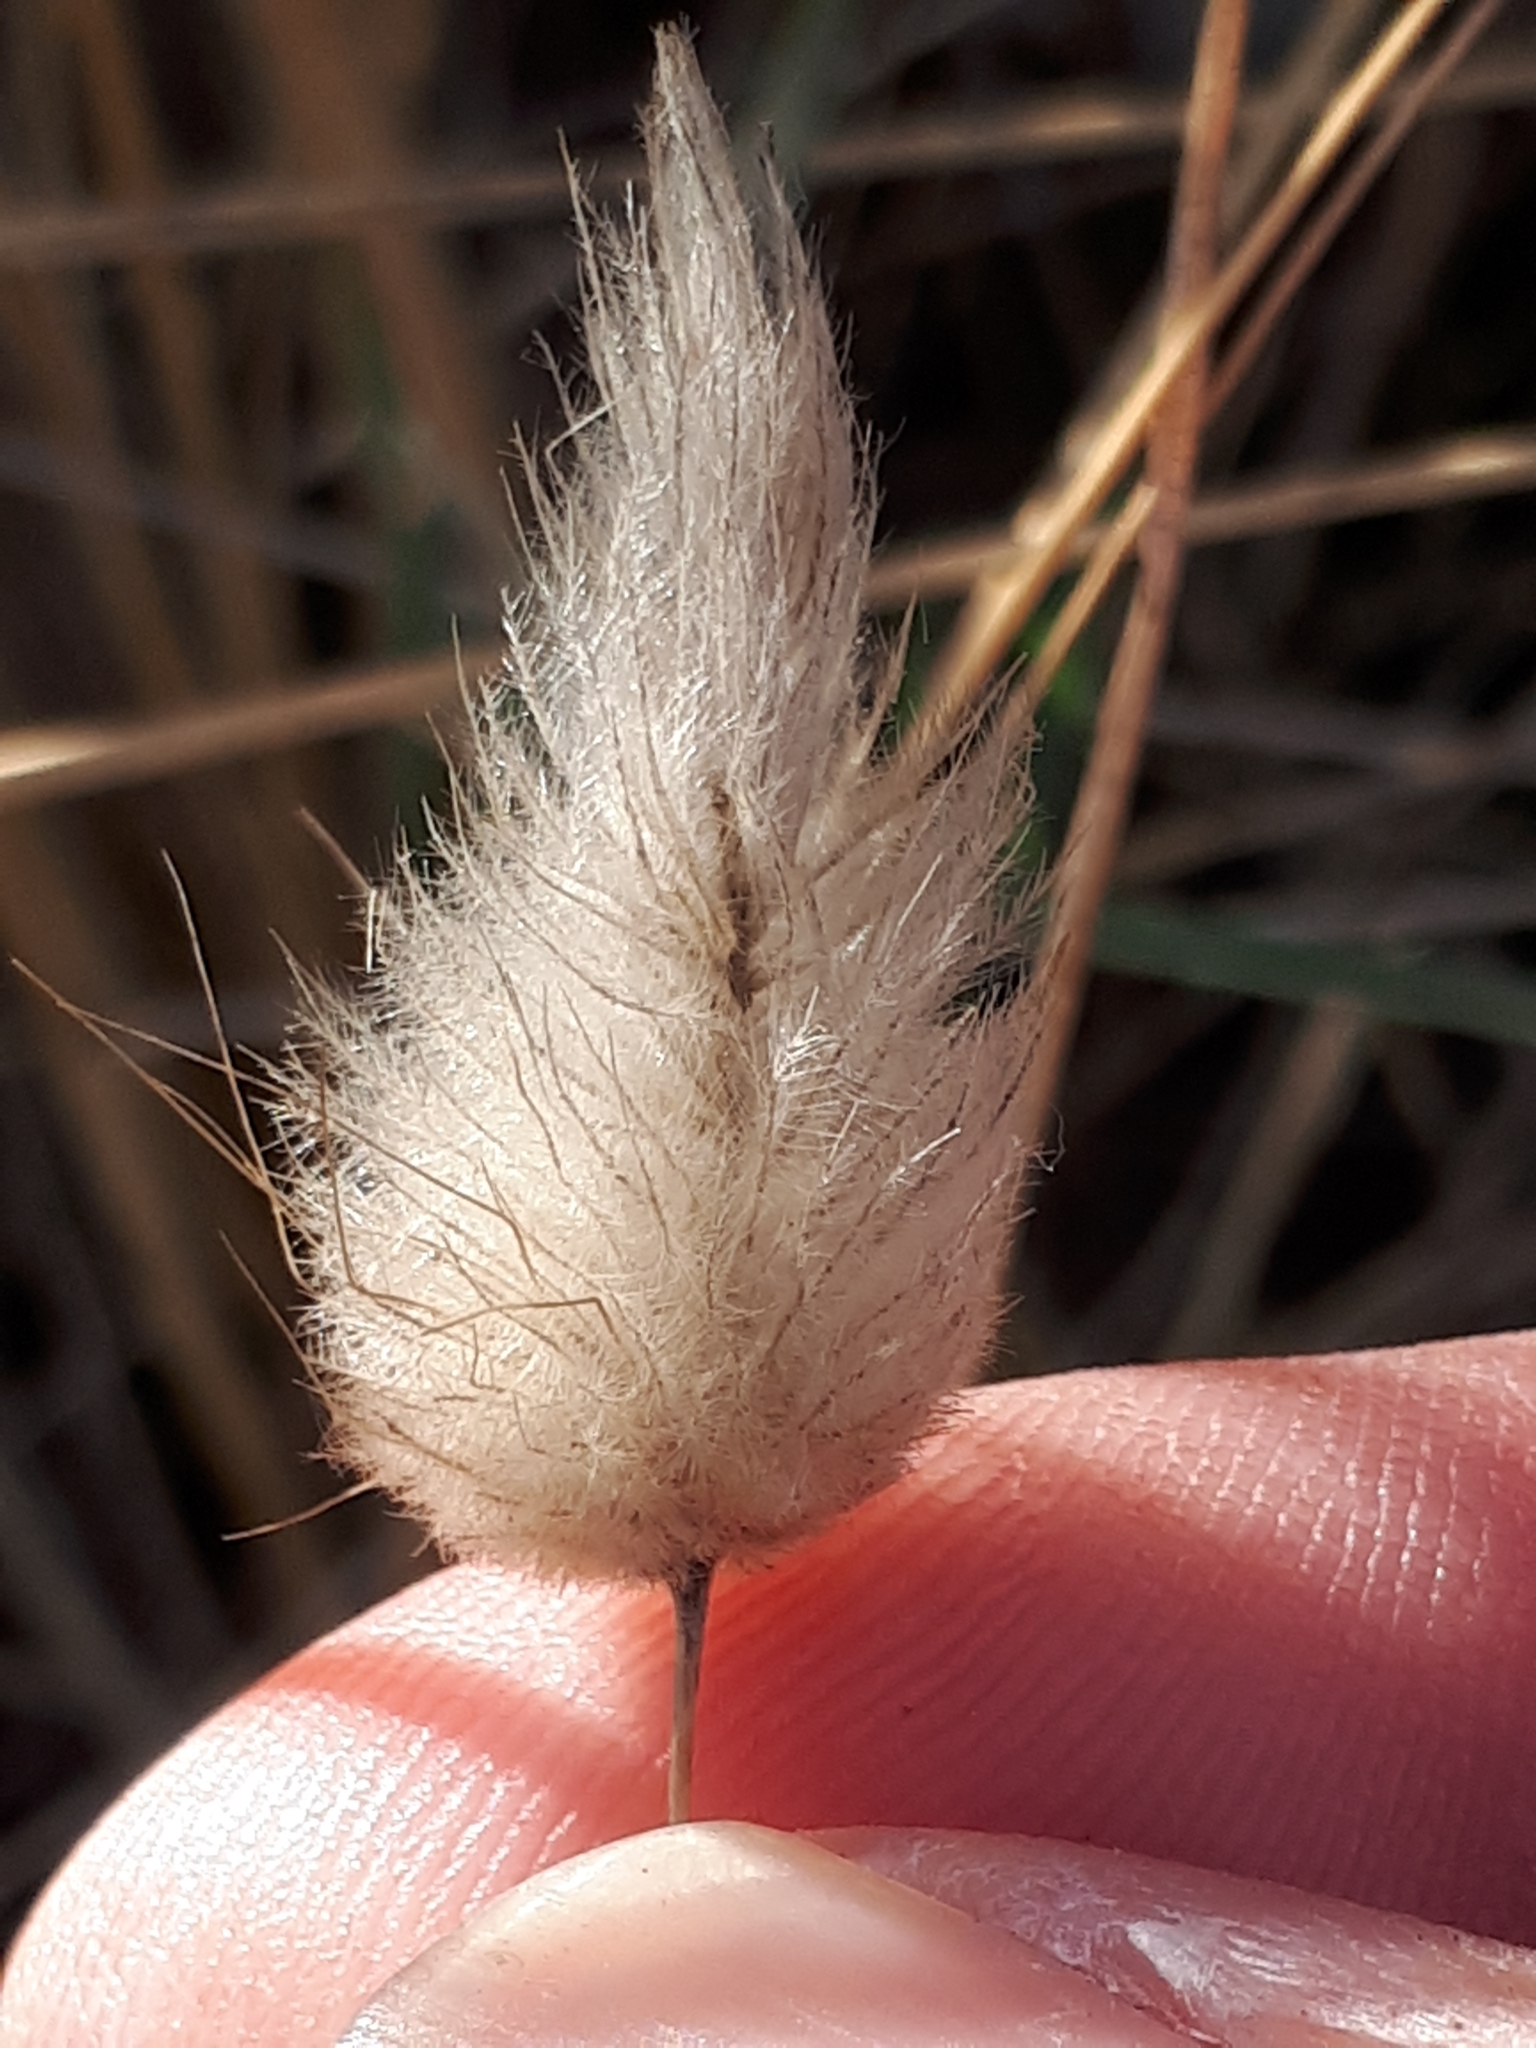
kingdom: Plantae
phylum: Tracheophyta
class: Liliopsida
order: Poales
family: Poaceae
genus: Lagurus
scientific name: Lagurus ovatus
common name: Hare's-tail
